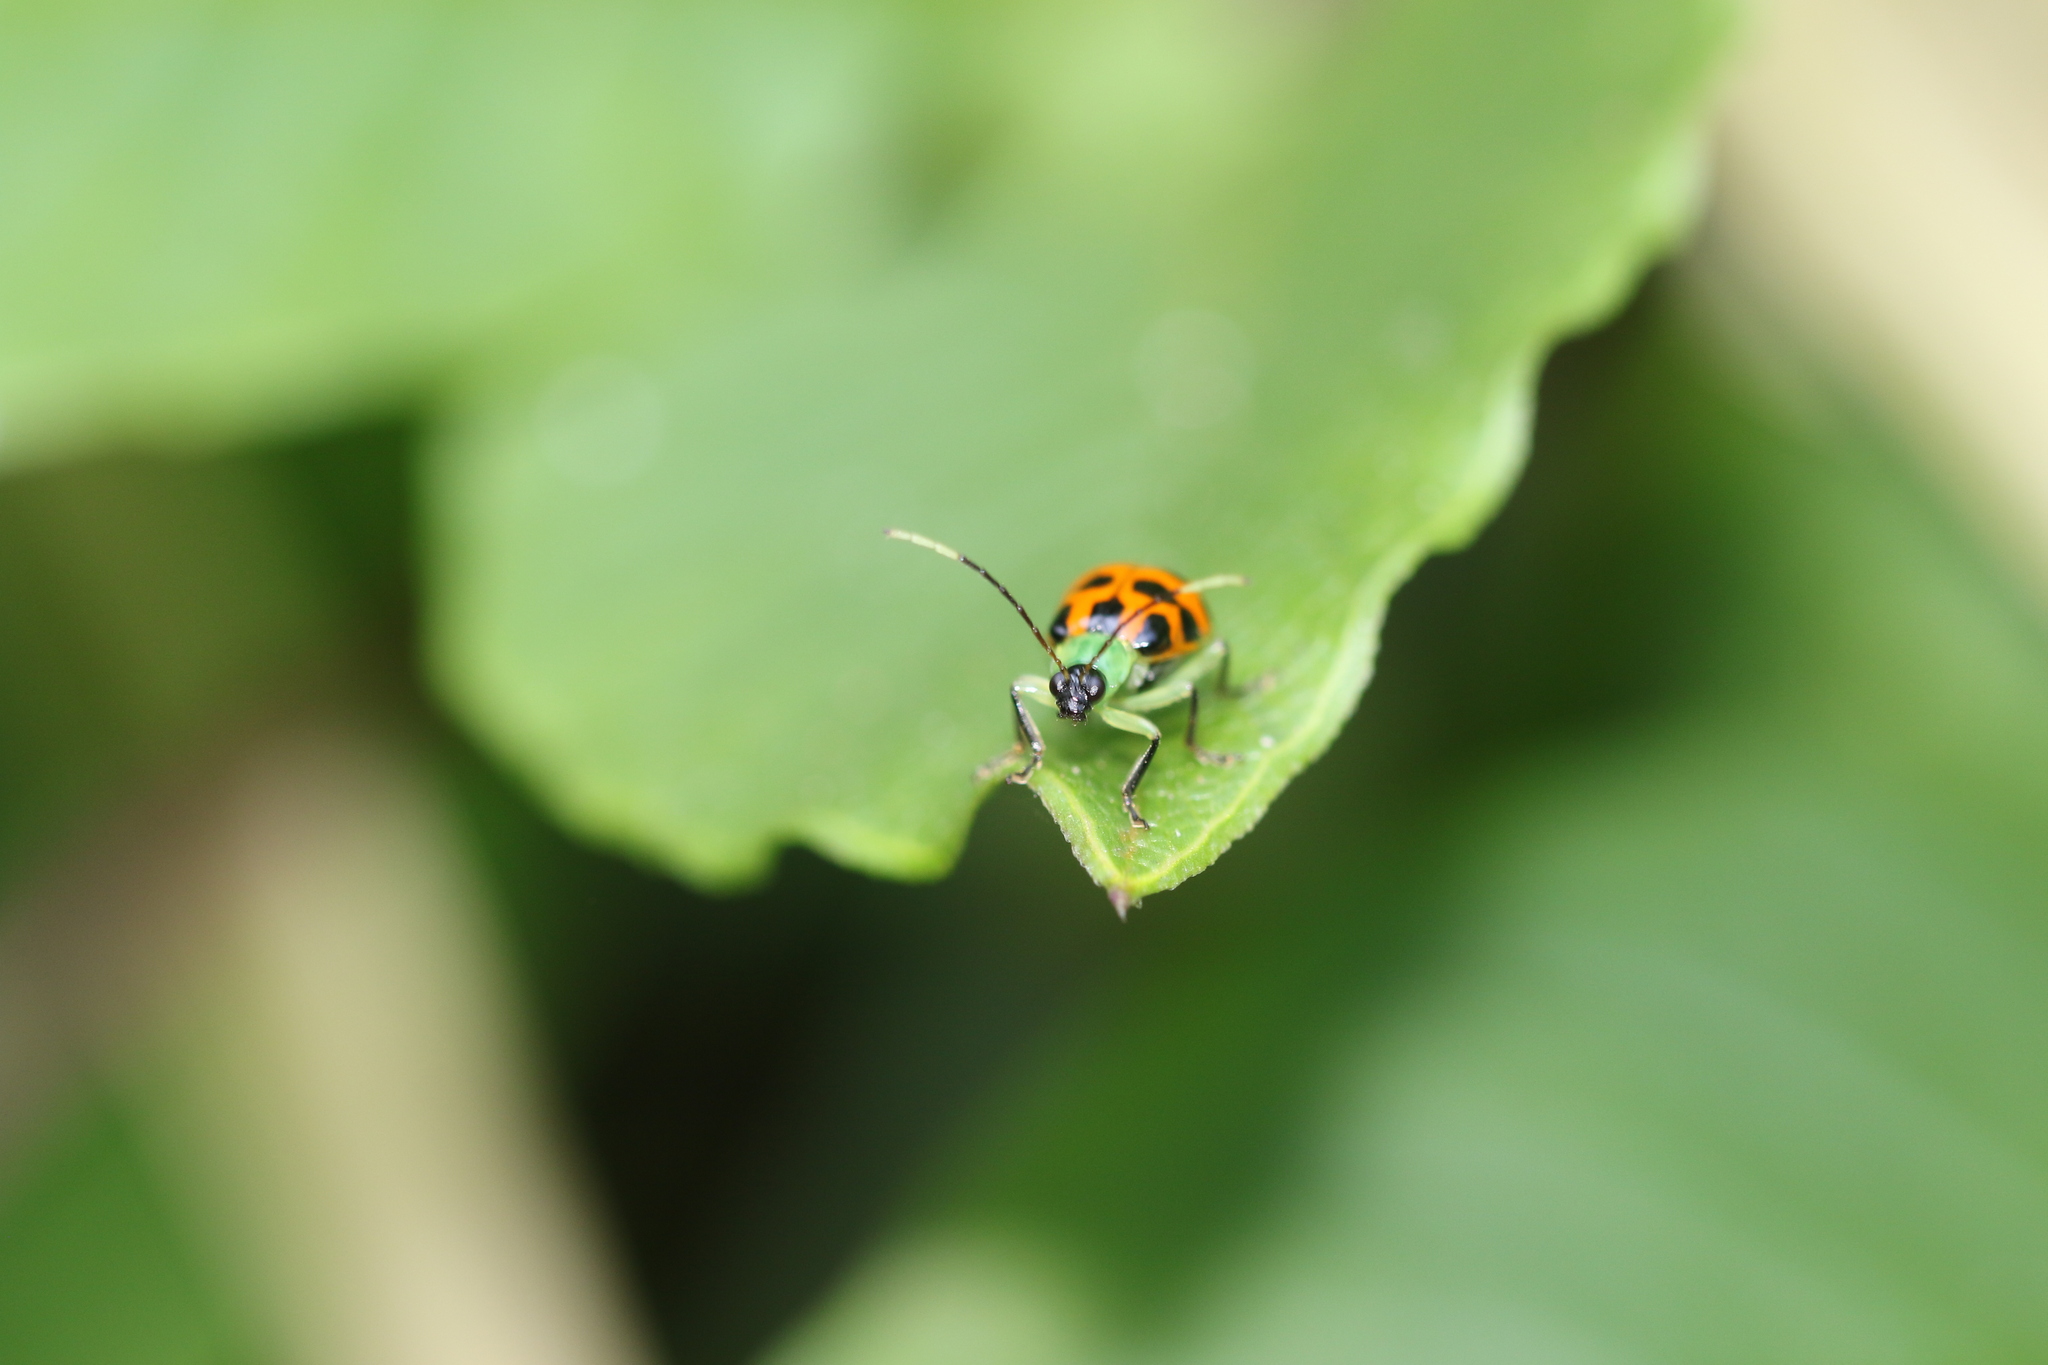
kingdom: Animalia
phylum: Arthropoda
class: Insecta
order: Coleoptera
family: Chrysomelidae
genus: Diabrotica
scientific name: Diabrotica limitata
